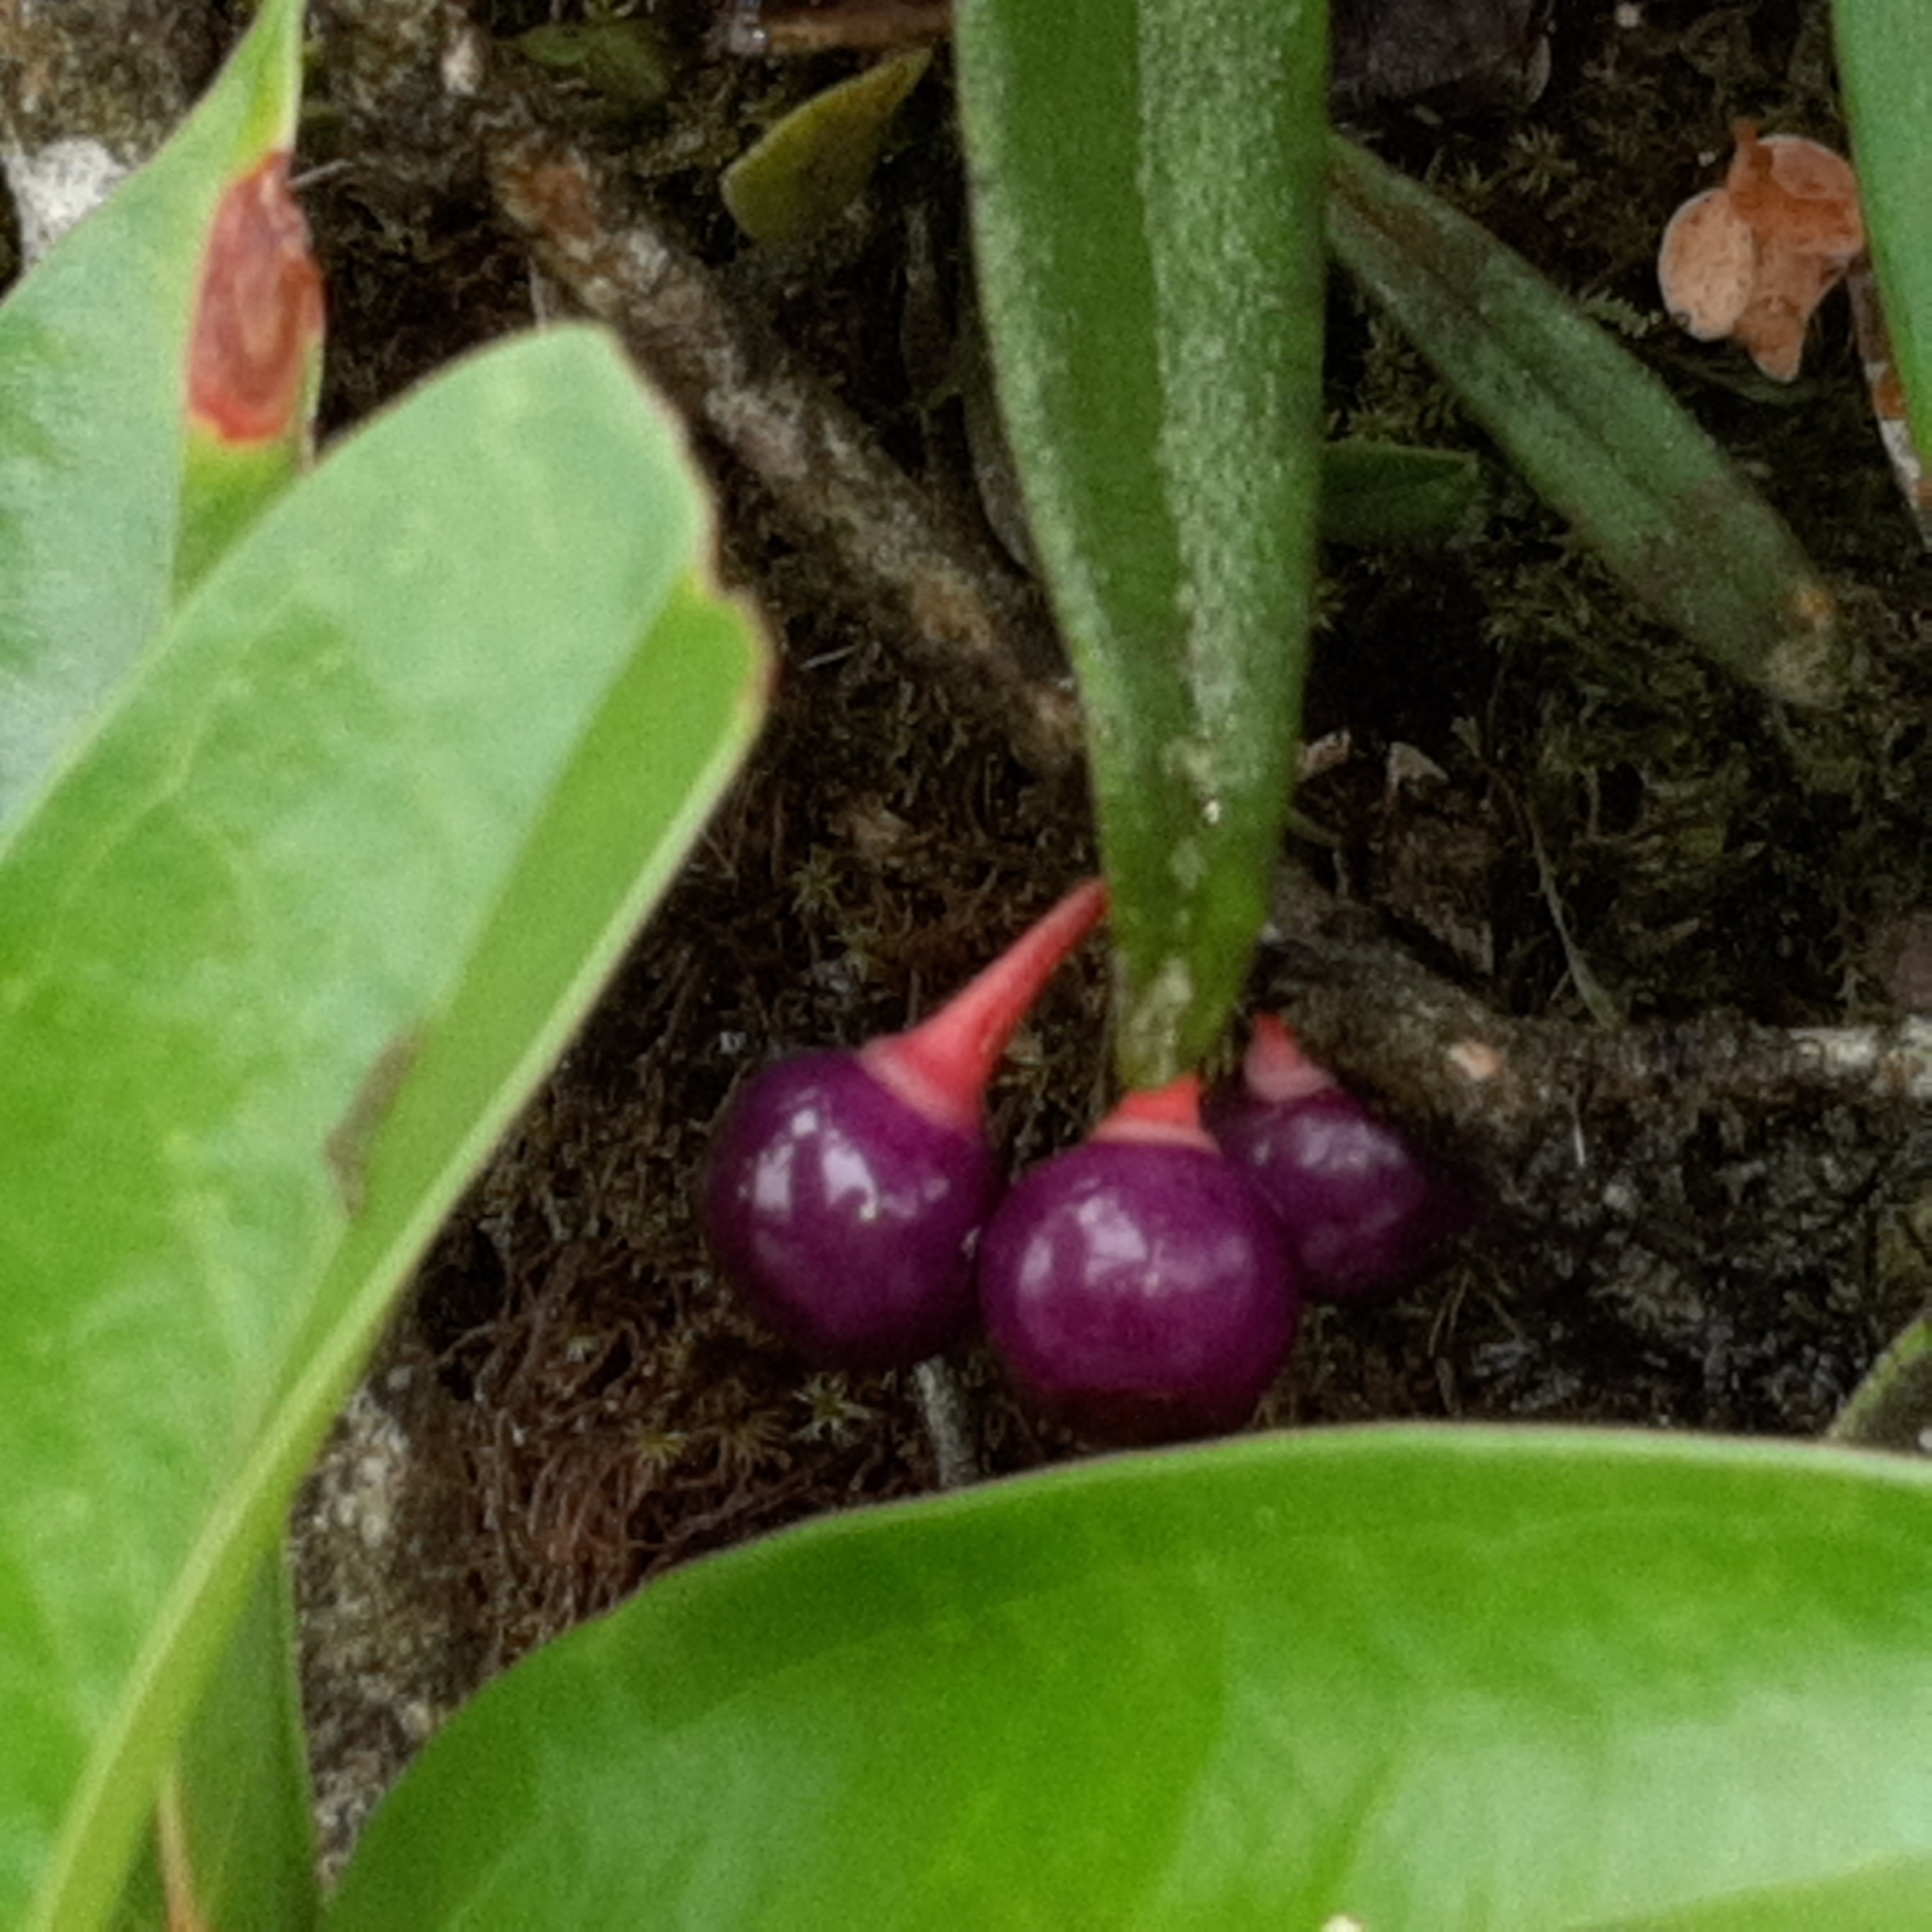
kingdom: Plantae
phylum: Tracheophyta
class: Magnoliopsida
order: Ericales
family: Ericaceae
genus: Satyria
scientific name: Satyria warszewiczii
